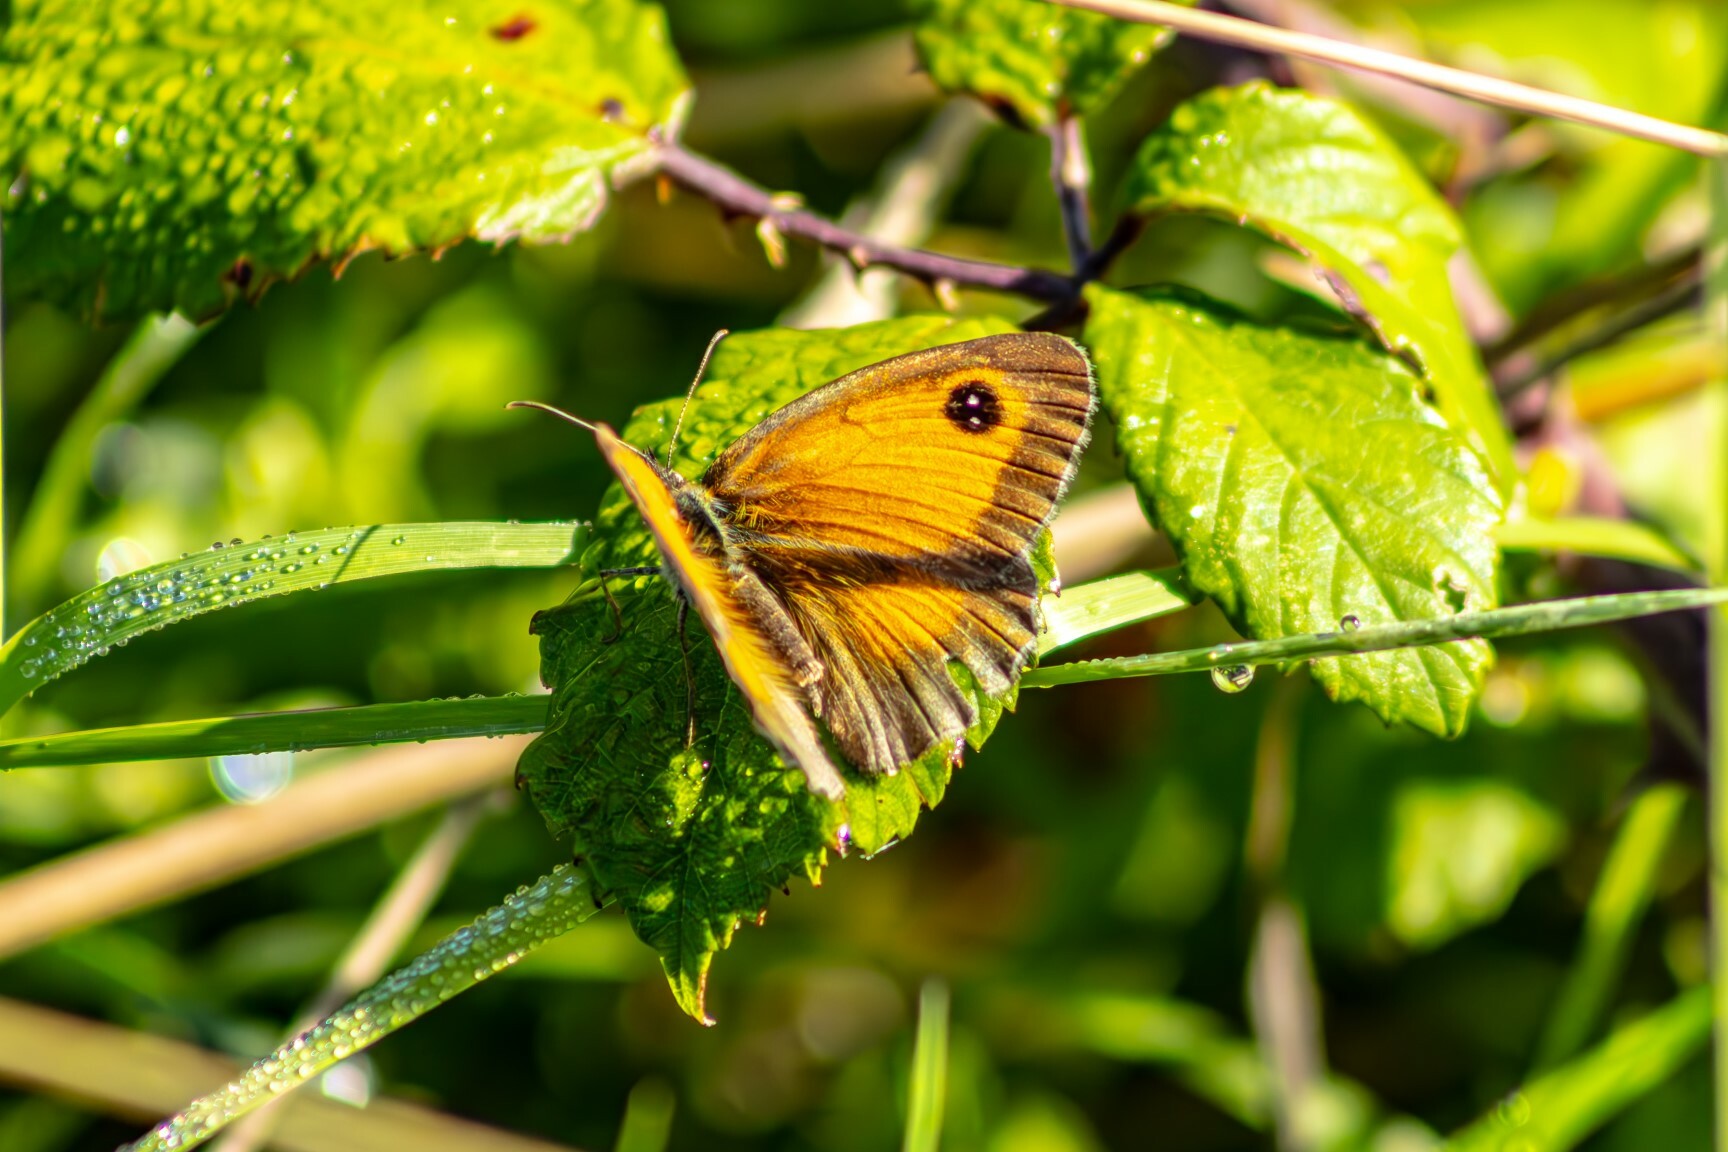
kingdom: Animalia
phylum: Arthropoda
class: Insecta
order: Lepidoptera
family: Nymphalidae
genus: Pyronia
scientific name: Pyronia tithonus
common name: Gatekeeper
